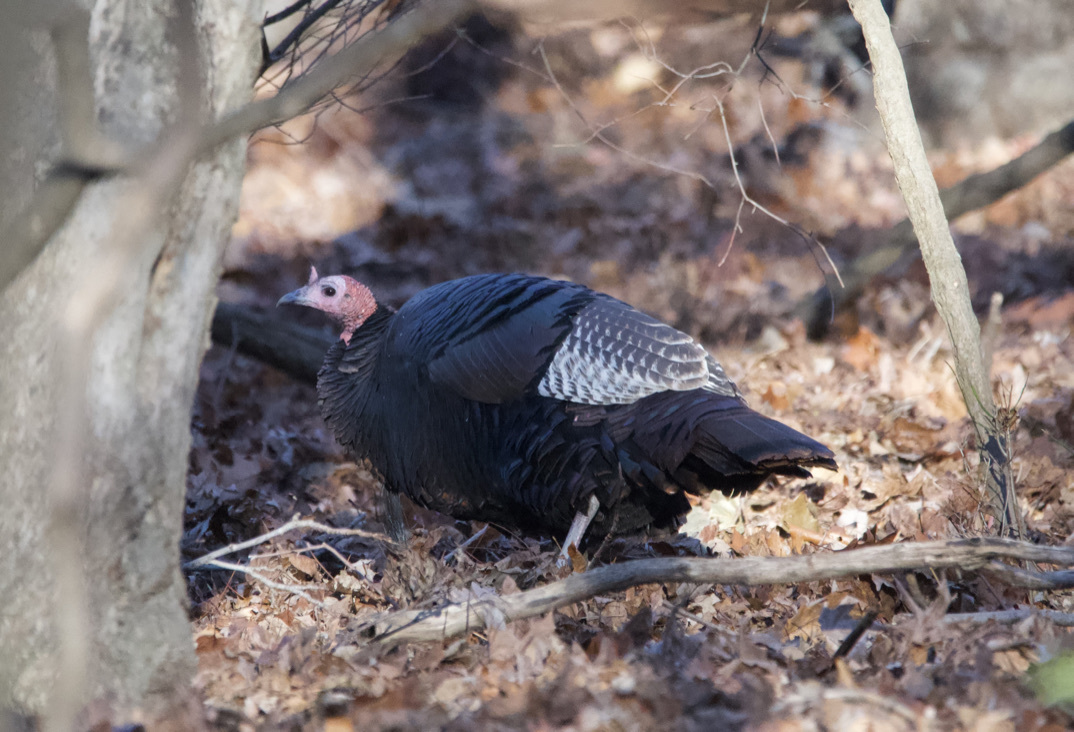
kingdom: Animalia
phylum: Chordata
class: Aves
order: Galliformes
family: Phasianidae
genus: Meleagris
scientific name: Meleagris gallopavo
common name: Wild turkey
